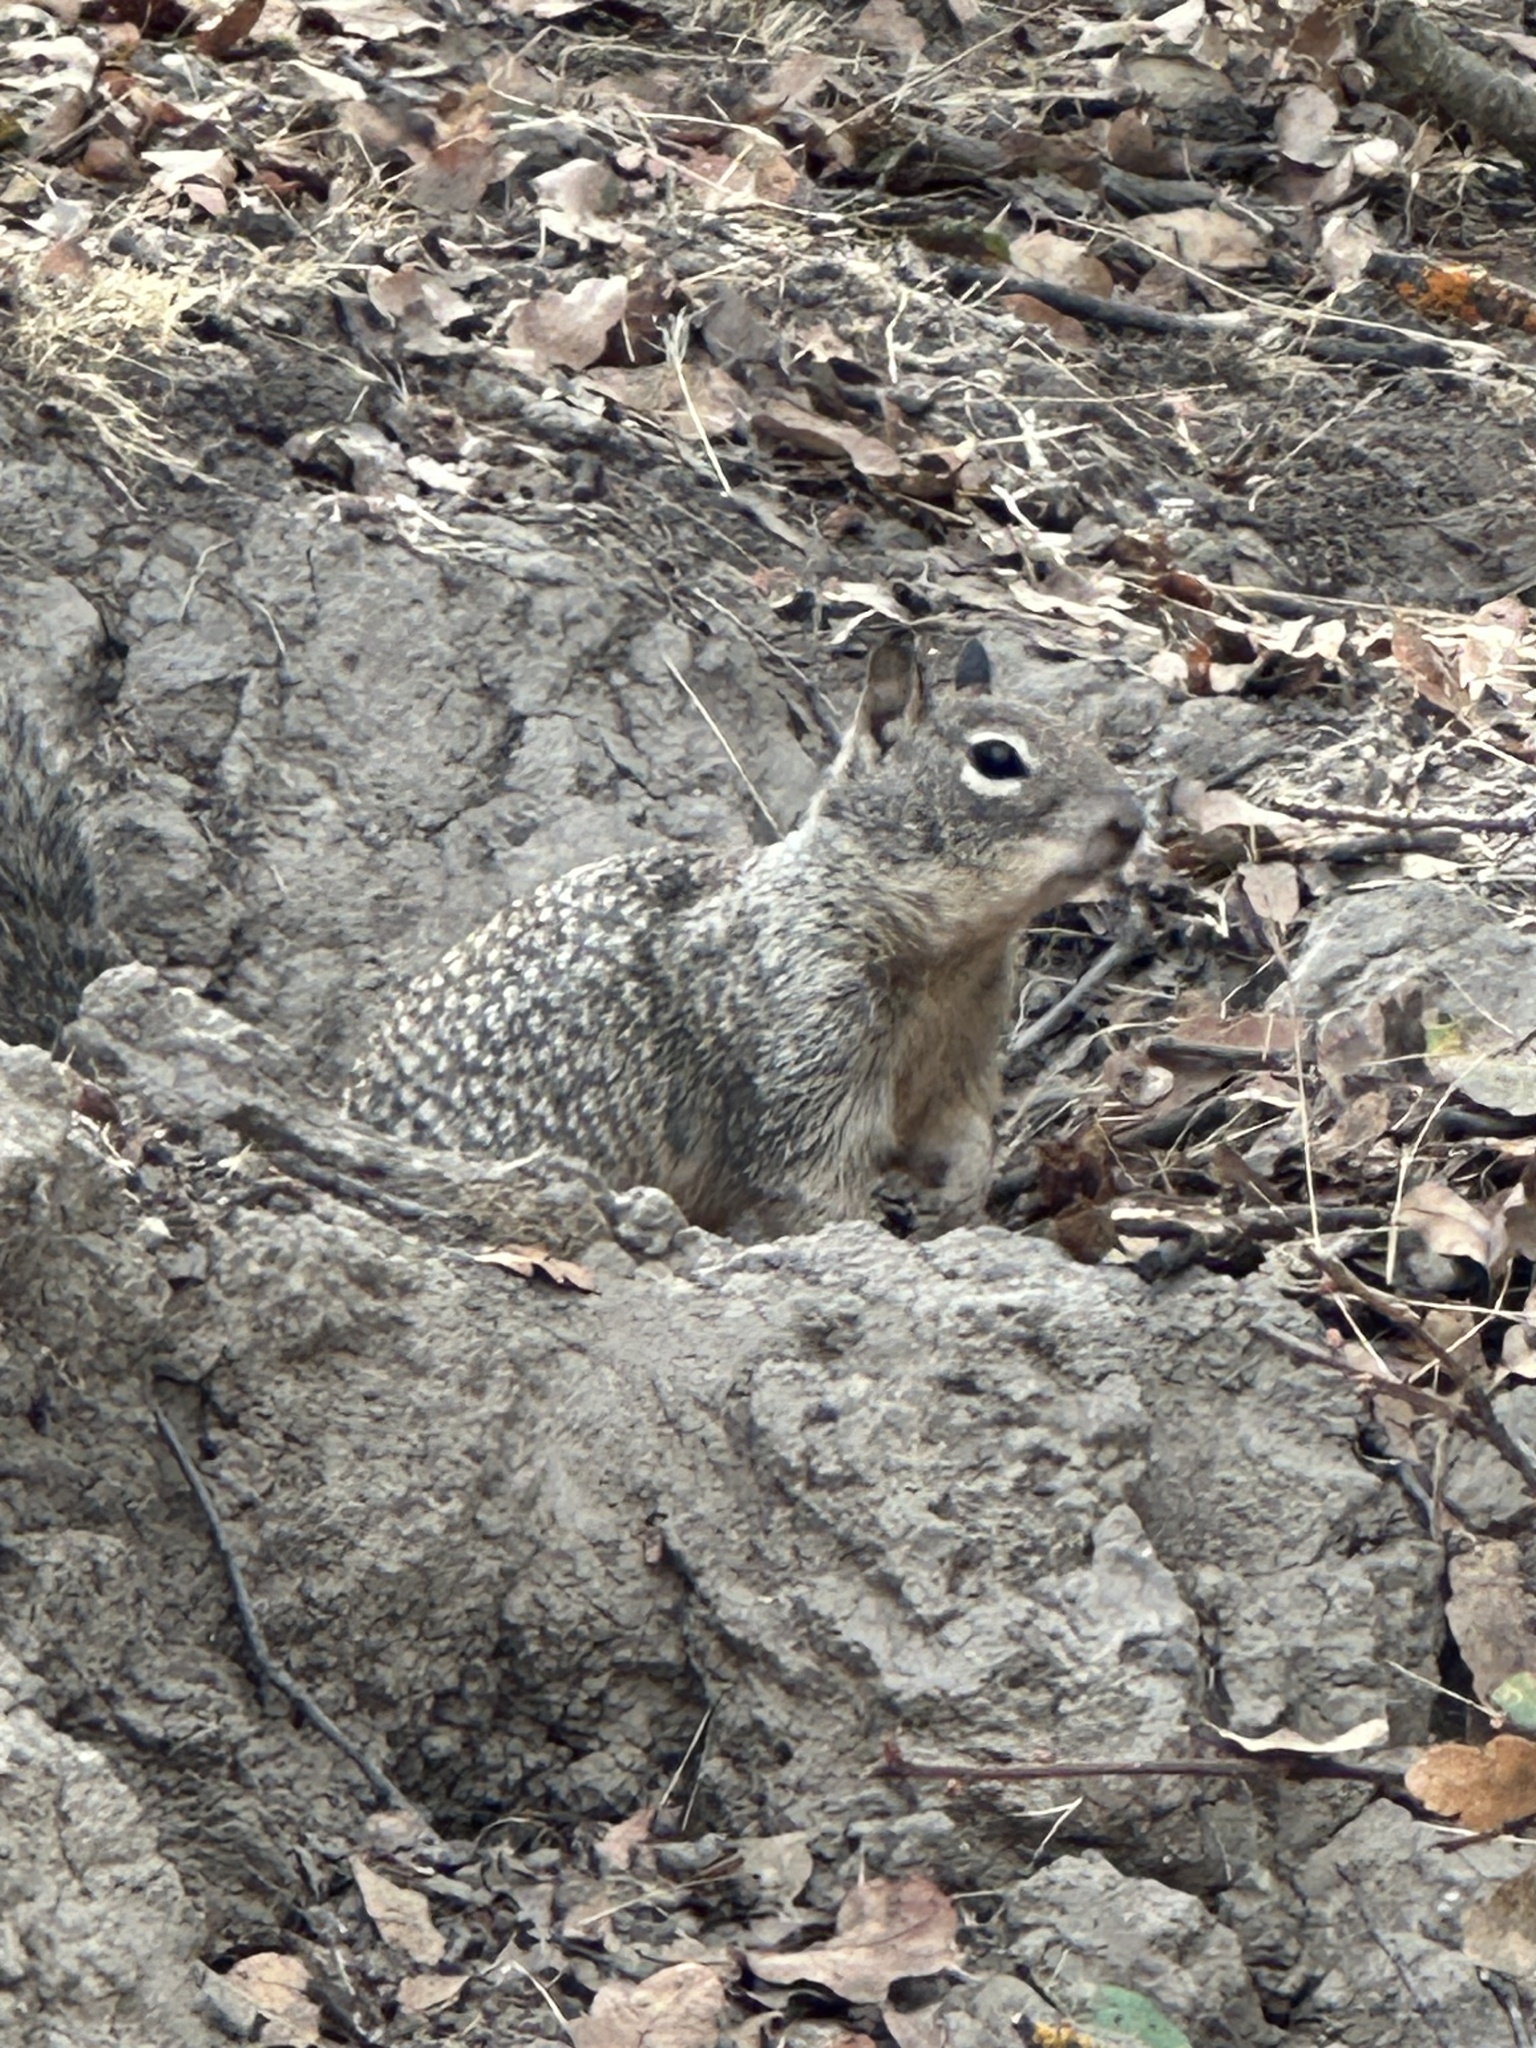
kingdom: Animalia
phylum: Chordata
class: Mammalia
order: Rodentia
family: Sciuridae
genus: Otospermophilus
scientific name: Otospermophilus beecheyi
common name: California ground squirrel
